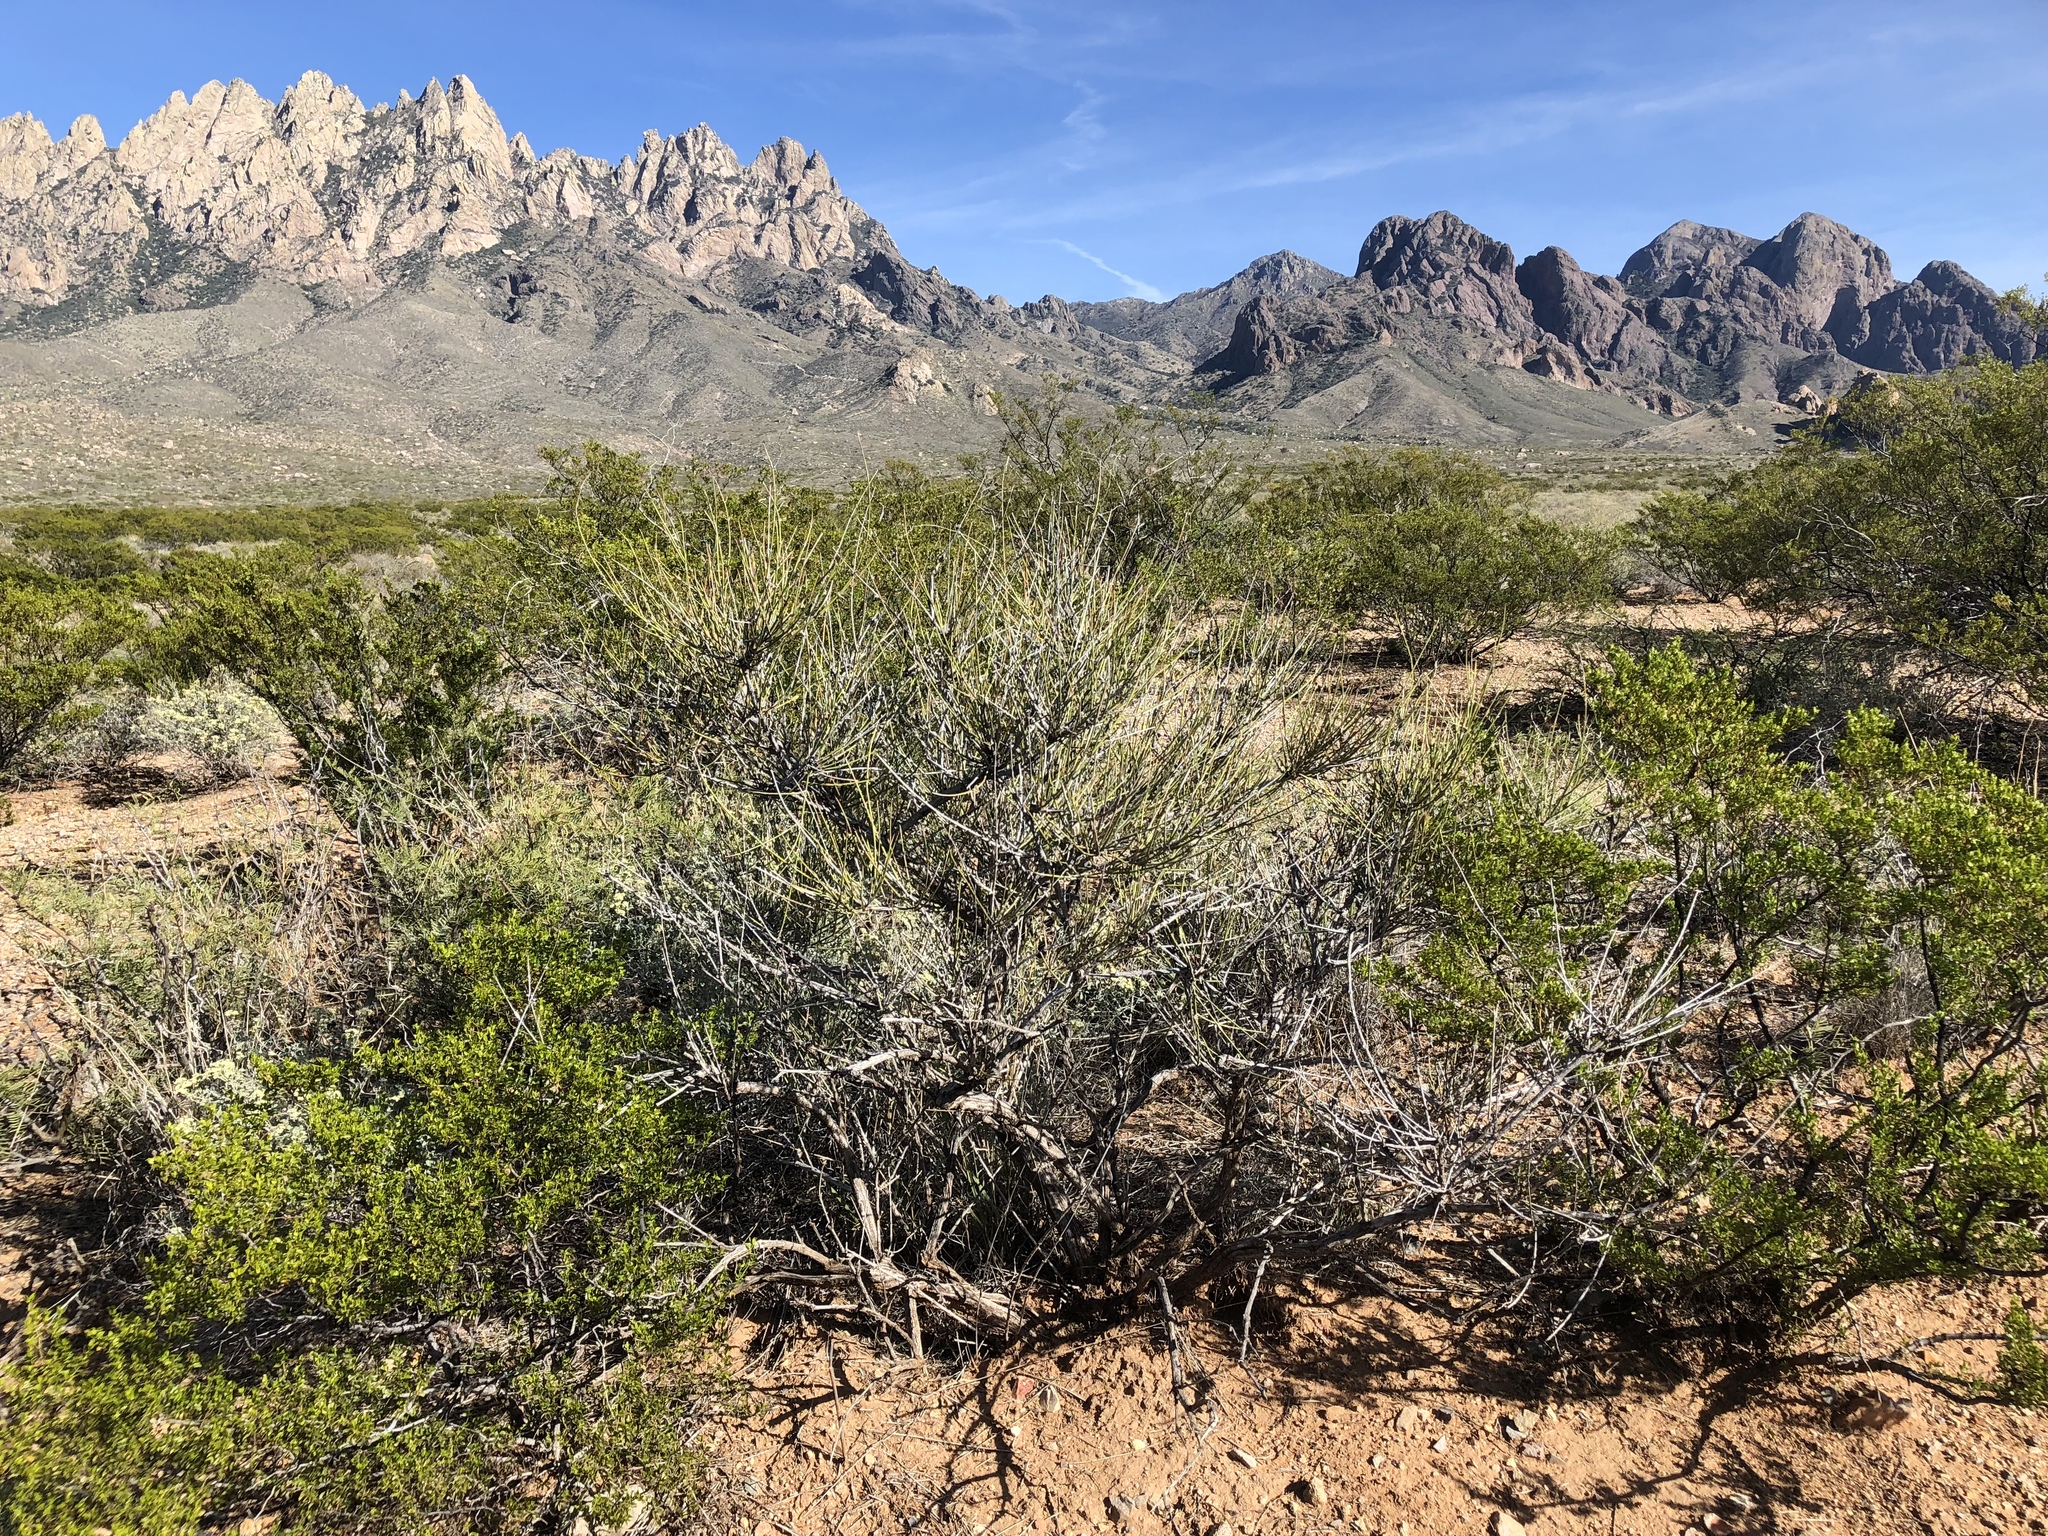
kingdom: Plantae
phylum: Tracheophyta
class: Gnetopsida
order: Ephedrales
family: Ephedraceae
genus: Ephedra
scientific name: Ephedra trifurca
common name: Mexican-tea
